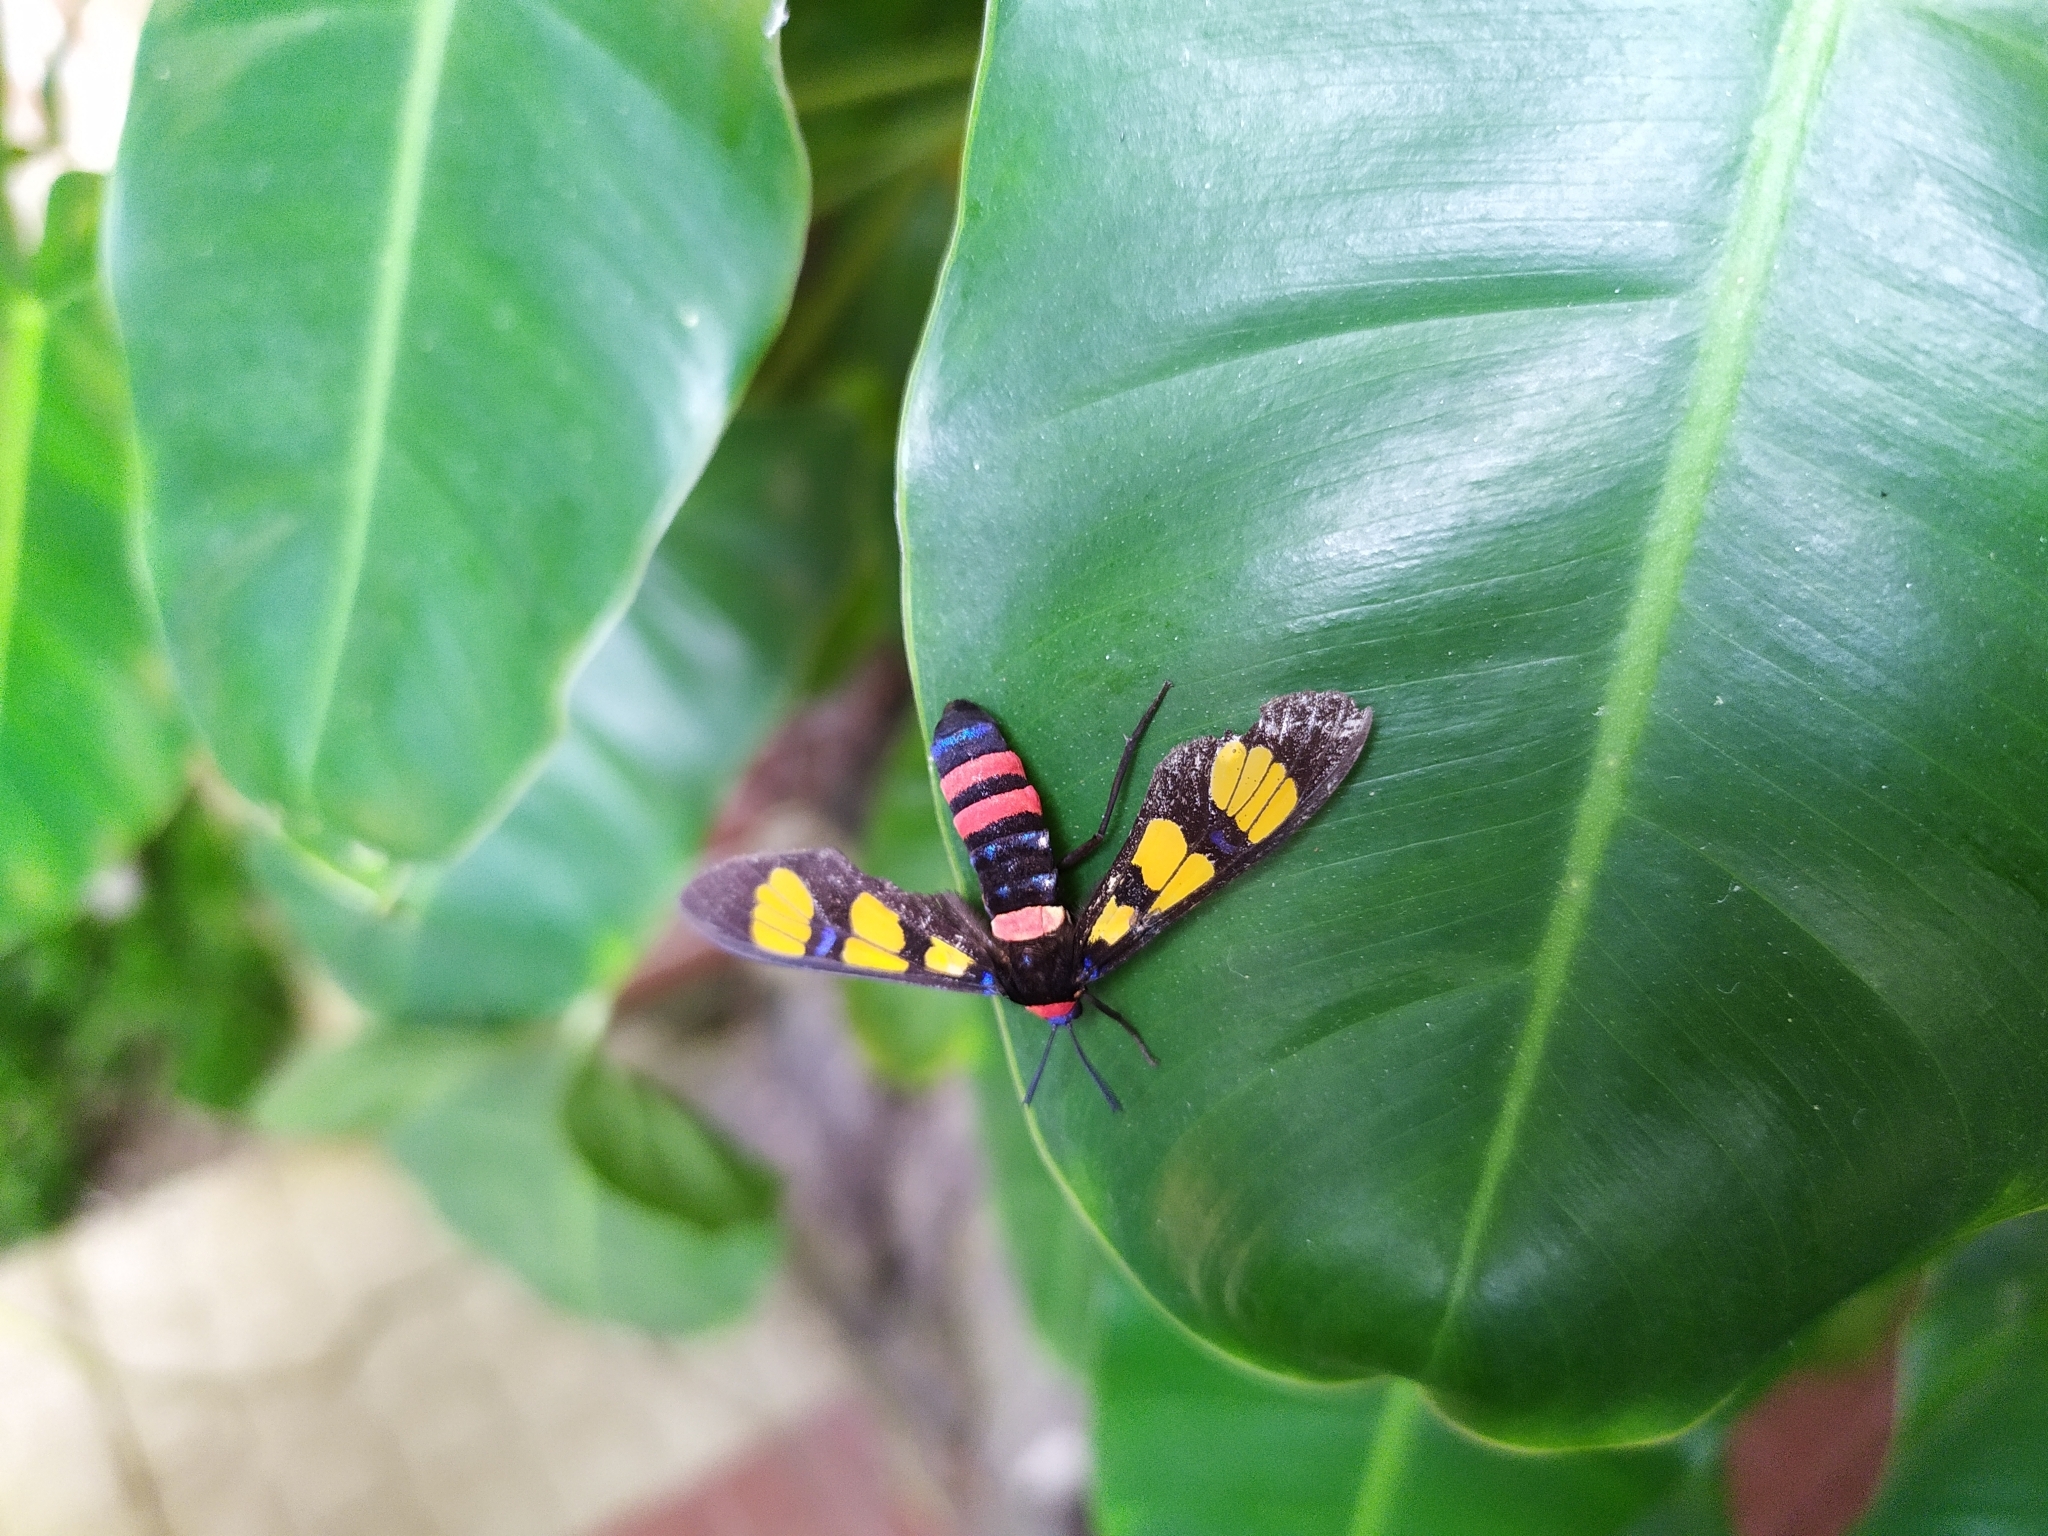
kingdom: Animalia
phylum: Arthropoda
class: Insecta
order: Lepidoptera
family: Erebidae
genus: Euchromia
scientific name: Euchromia polymena
